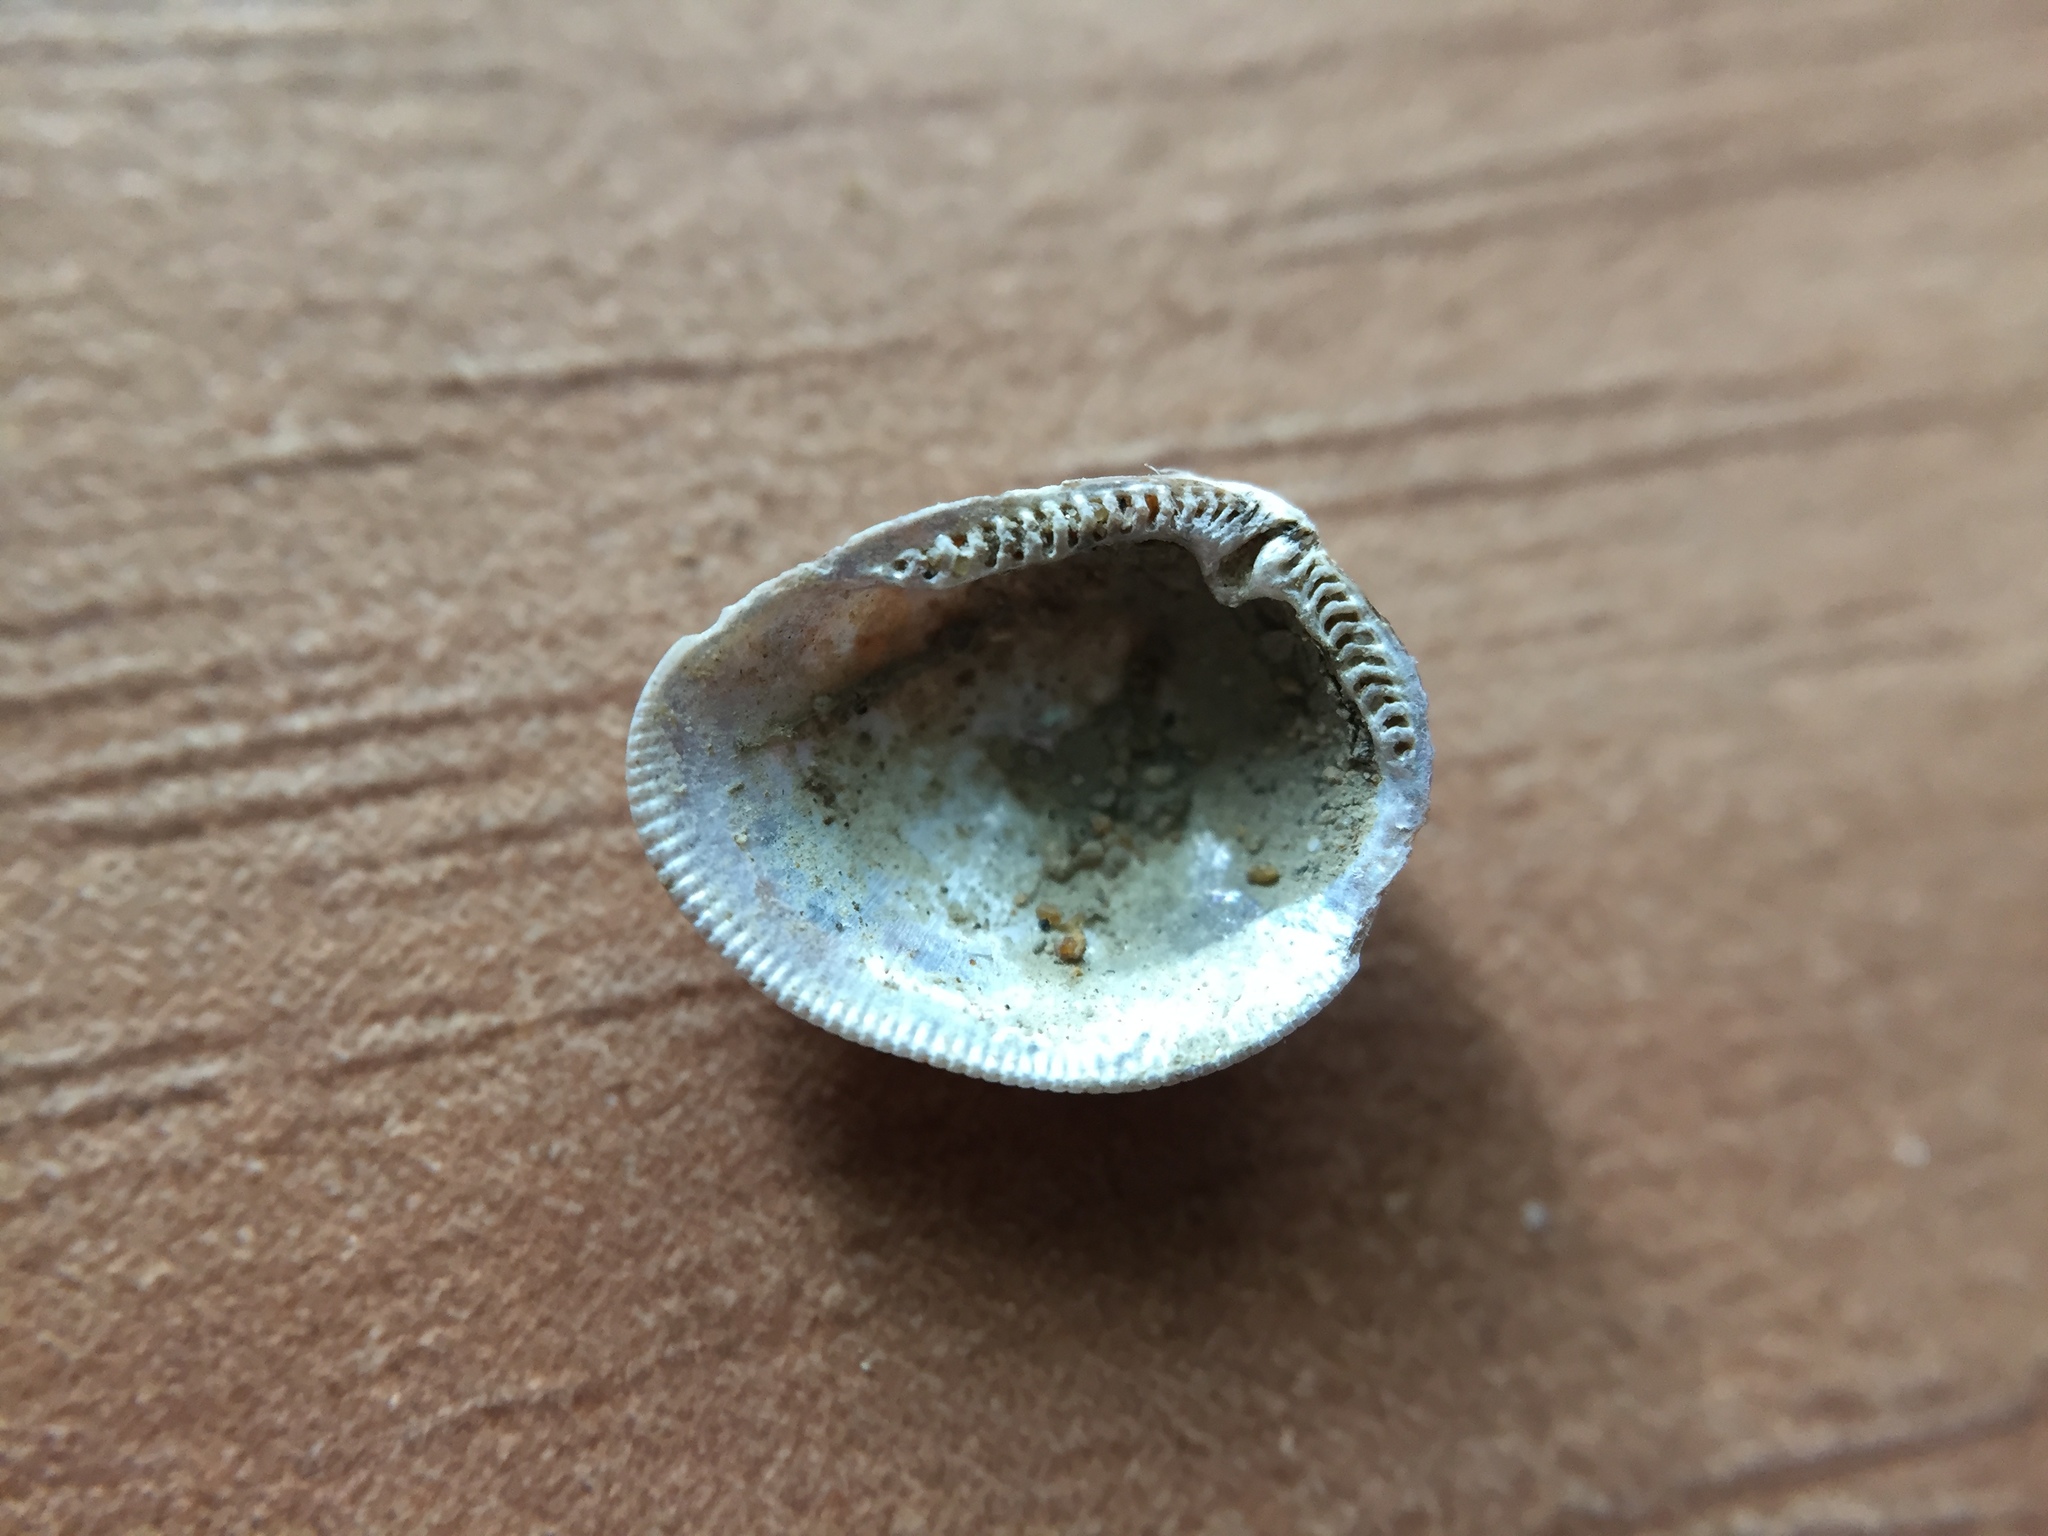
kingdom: Animalia
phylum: Mollusca
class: Bivalvia
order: Nuculida
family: Nuculidae
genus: Linucula
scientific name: Linucula hartvigiana
